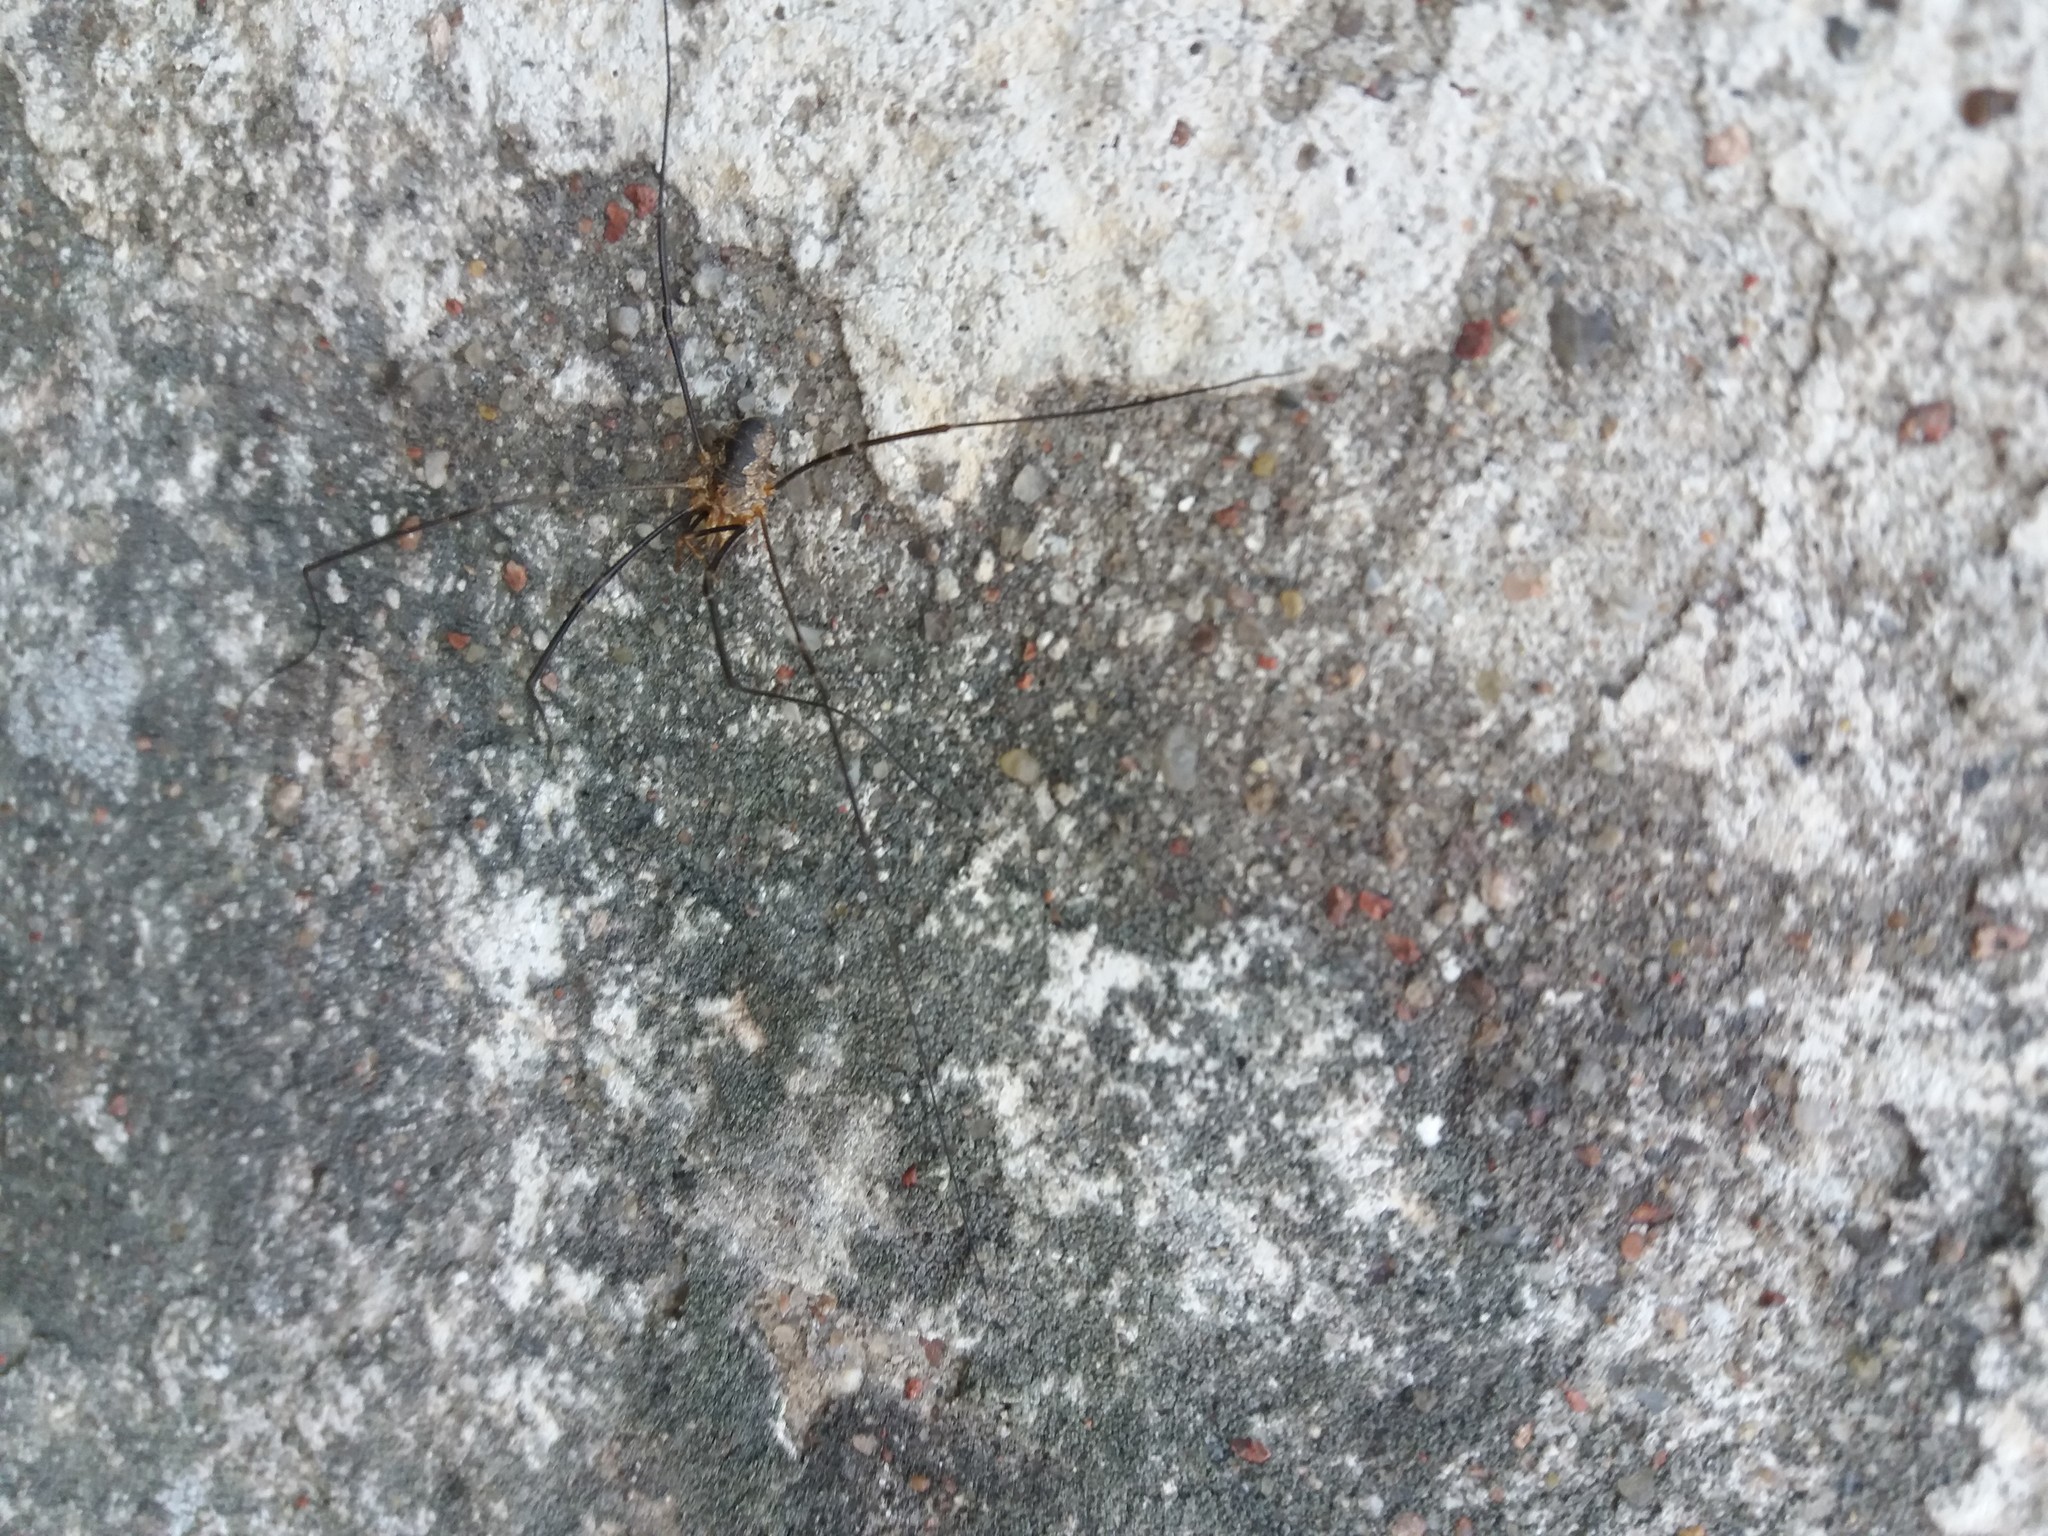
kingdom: Animalia
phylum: Arthropoda
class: Arachnida
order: Opiliones
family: Phalangiidae
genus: Phalangium
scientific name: Phalangium opilio
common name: Daddy longleg
